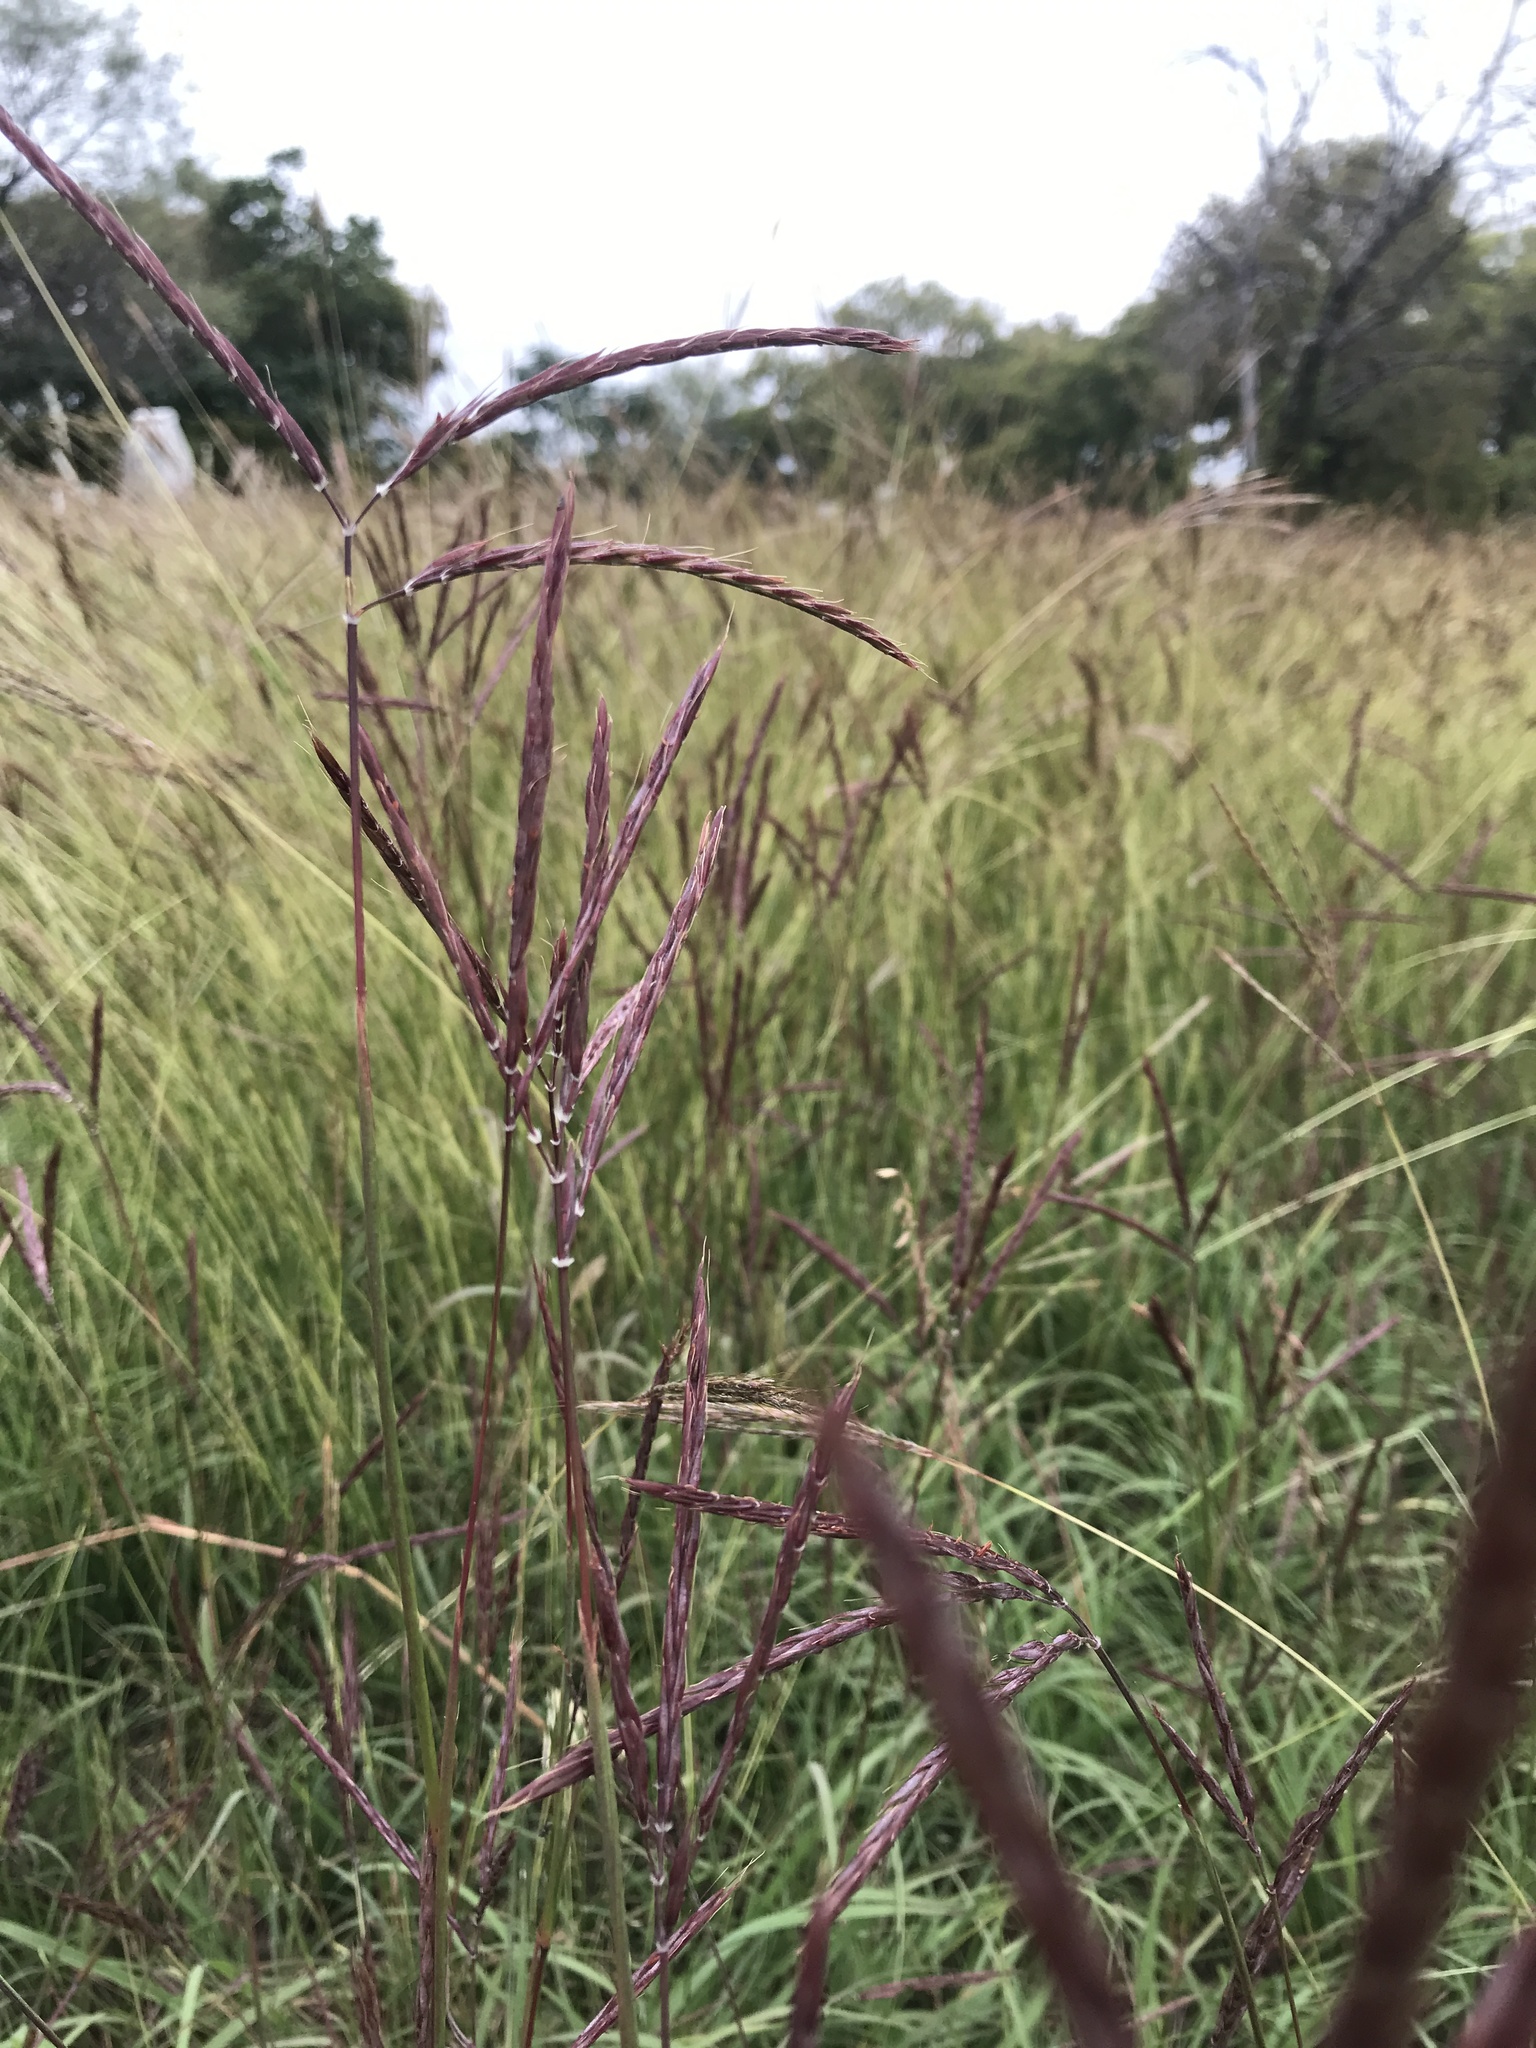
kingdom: Plantae
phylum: Tracheophyta
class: Liliopsida
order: Poales
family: Poaceae
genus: Andropogon
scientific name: Andropogon gerardi
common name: Big bluestem
